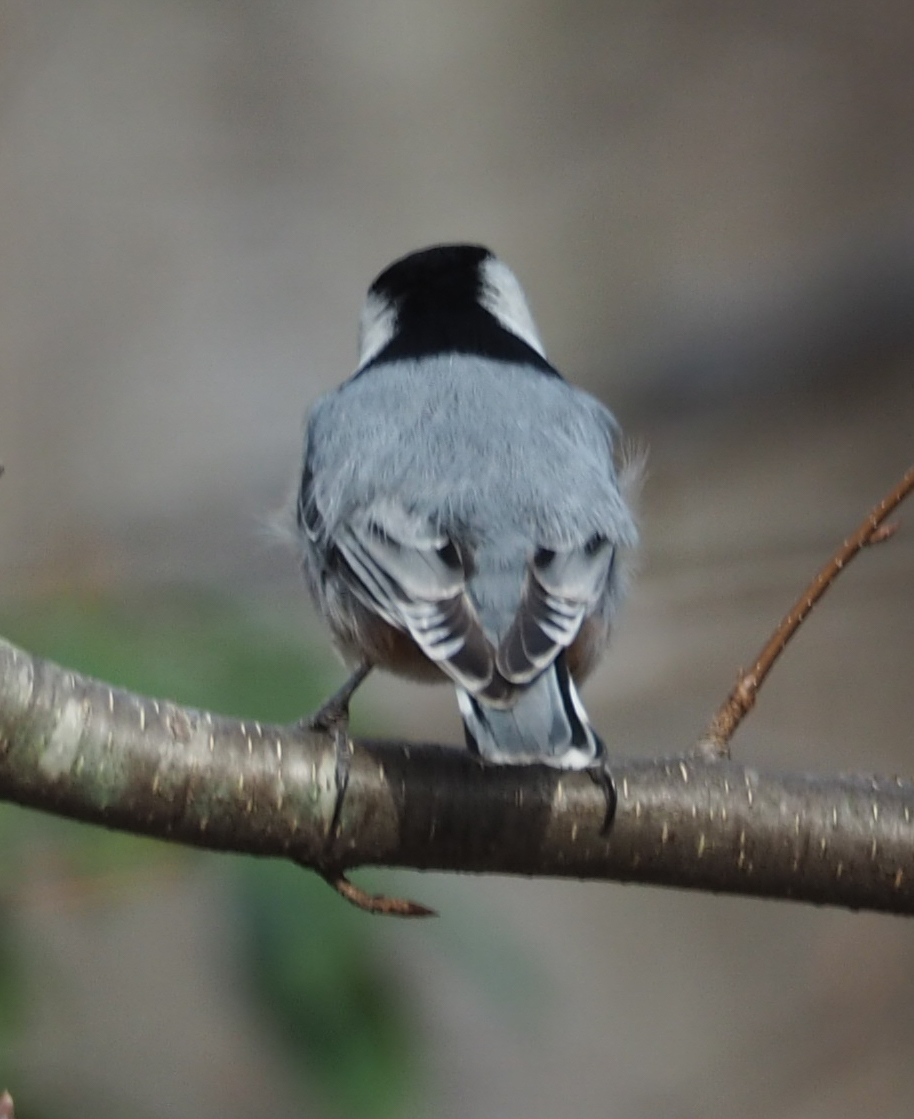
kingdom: Animalia
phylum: Chordata
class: Aves
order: Passeriformes
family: Sittidae
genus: Sitta
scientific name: Sitta carolinensis
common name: White-breasted nuthatch
